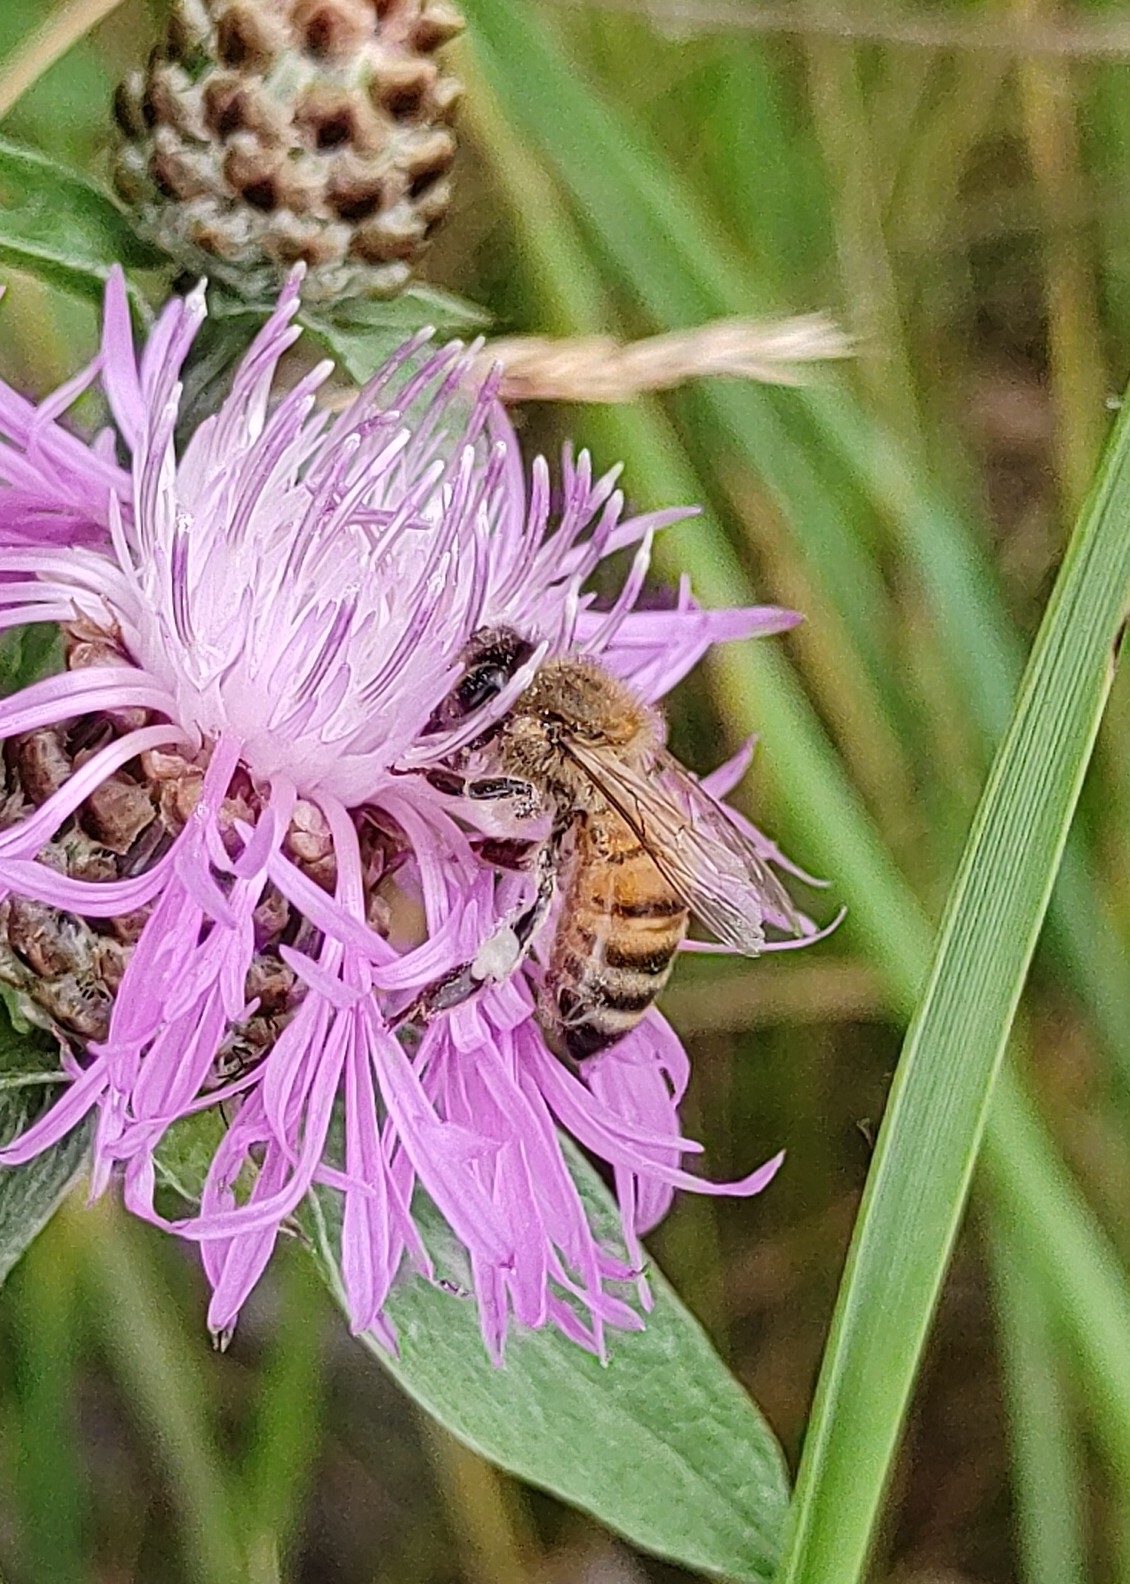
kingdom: Animalia
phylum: Arthropoda
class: Insecta
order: Hymenoptera
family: Apidae
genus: Apis
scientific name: Apis mellifera
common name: Honey bee
